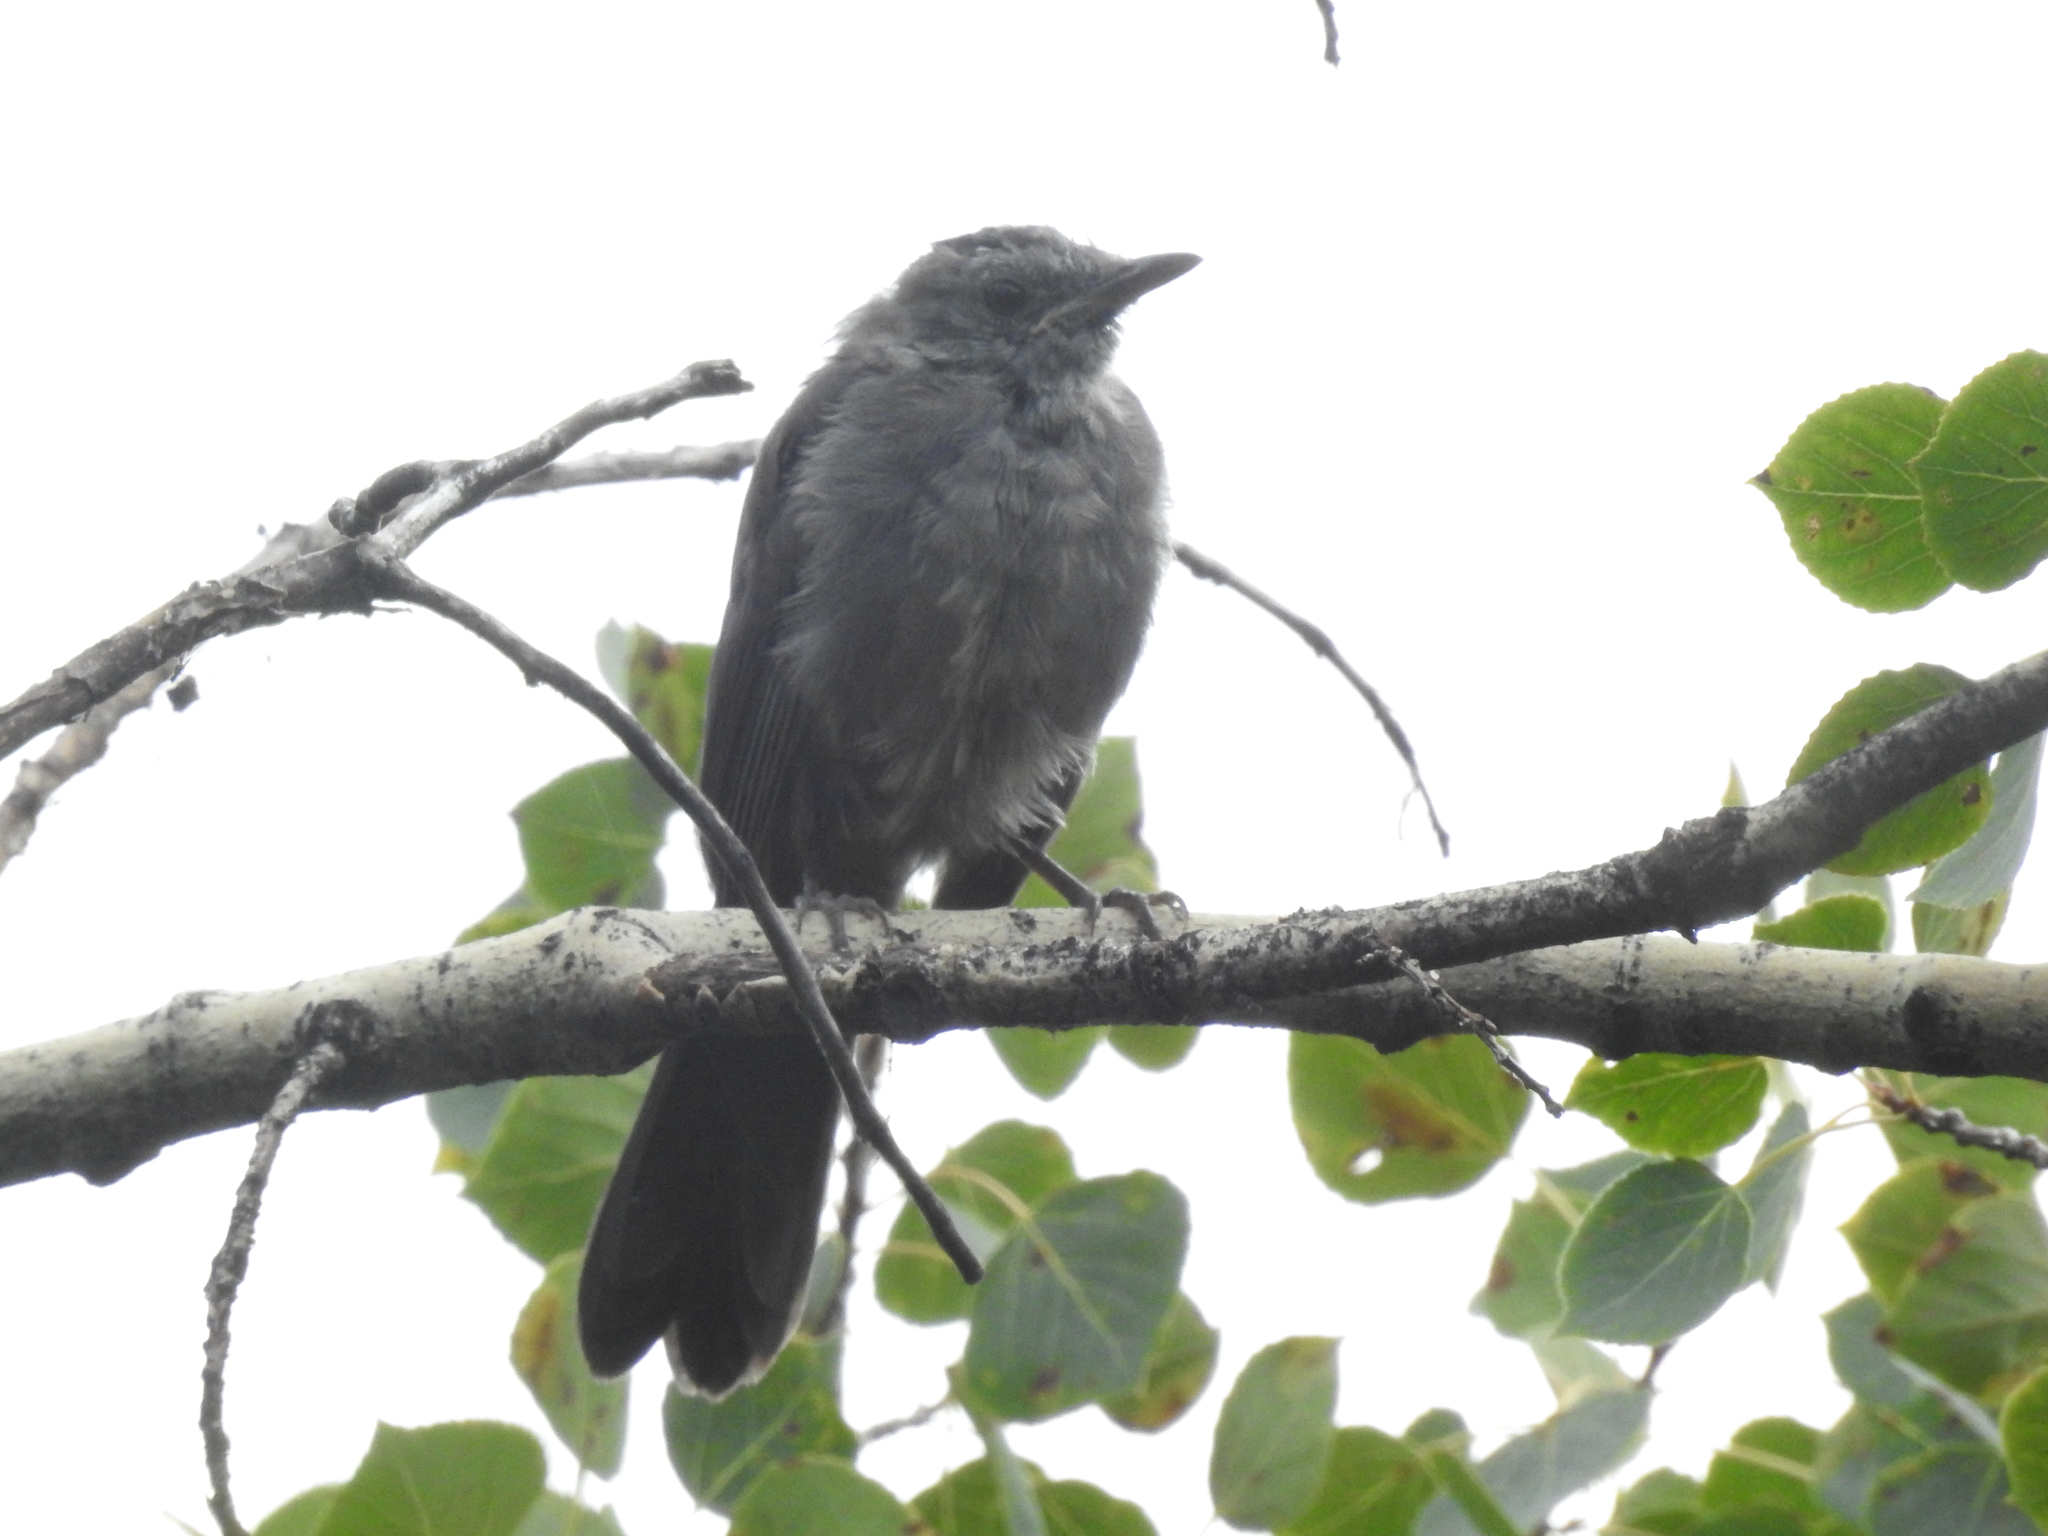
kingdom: Animalia
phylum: Chordata
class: Aves
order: Passeriformes
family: Mimidae
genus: Dumetella
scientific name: Dumetella carolinensis
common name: Gray catbird
